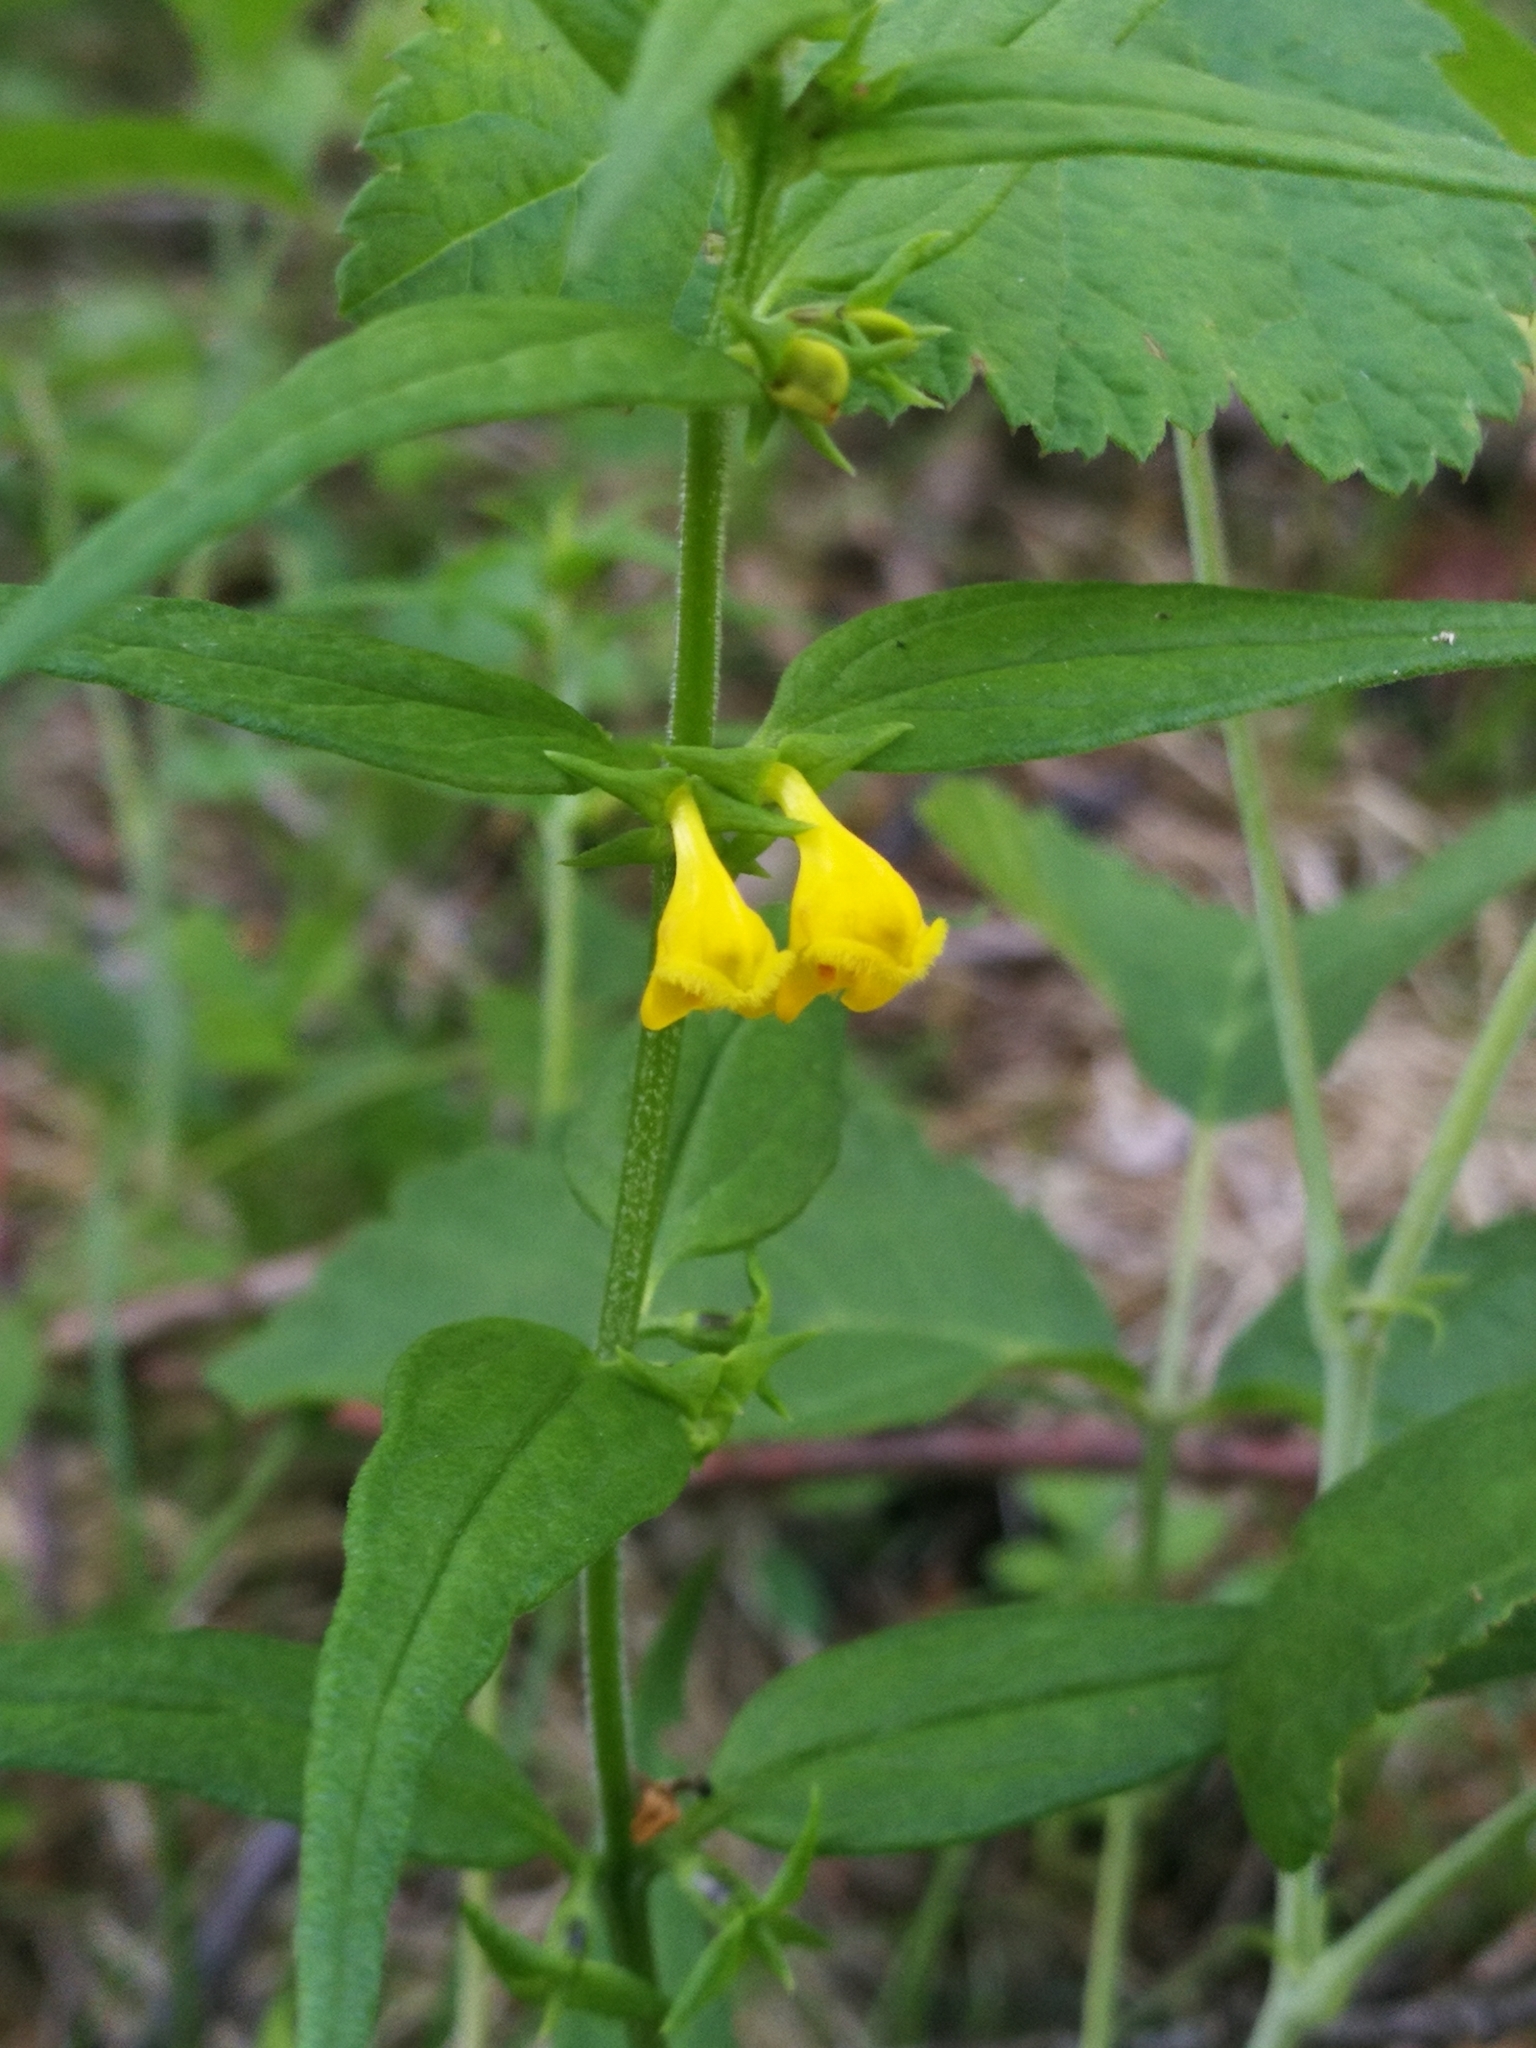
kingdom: Plantae
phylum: Tracheophyta
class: Magnoliopsida
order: Lamiales
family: Orobanchaceae
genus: Melampyrum
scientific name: Melampyrum sylvaticum
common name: Small cow-wheat
